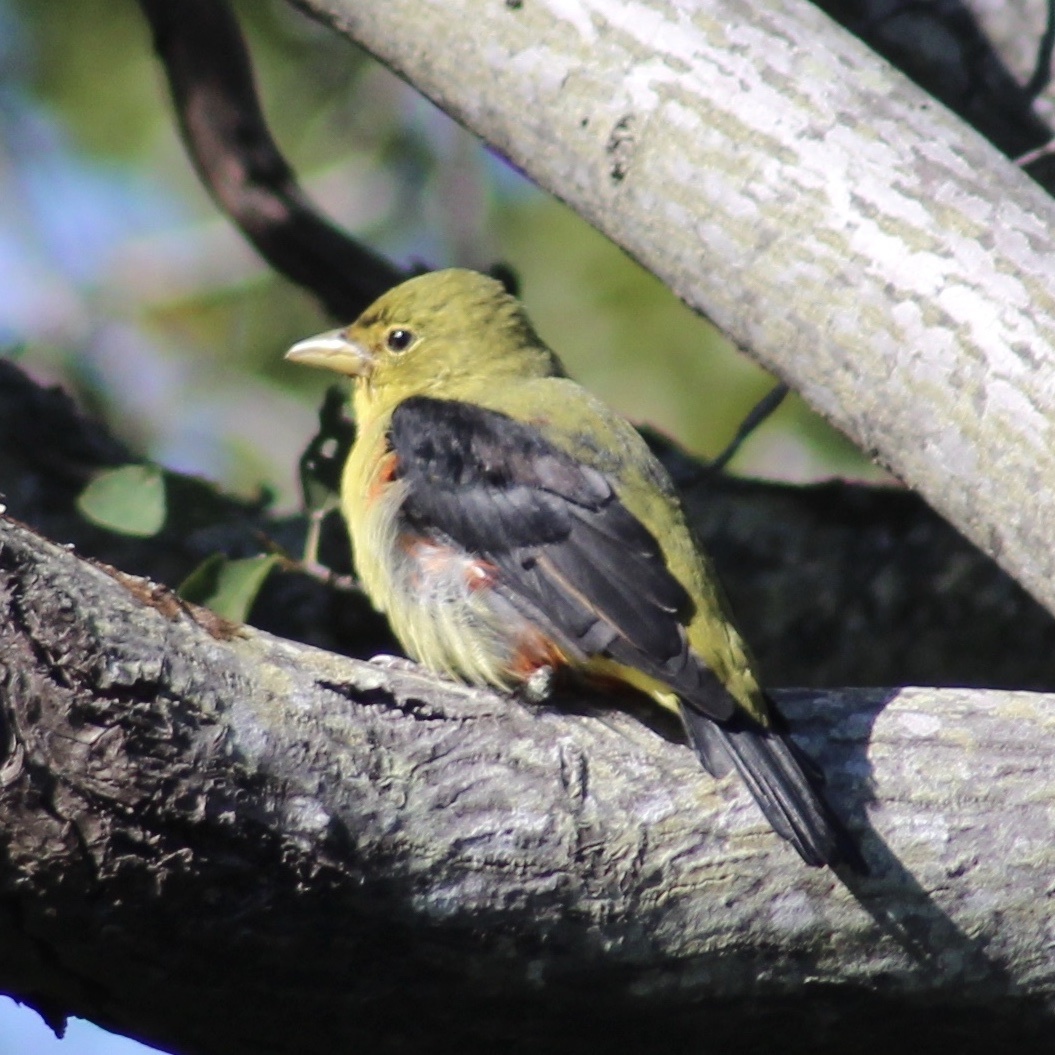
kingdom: Animalia
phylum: Chordata
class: Aves
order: Passeriformes
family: Cardinalidae
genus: Piranga
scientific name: Piranga olivacea
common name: Scarlet tanager
